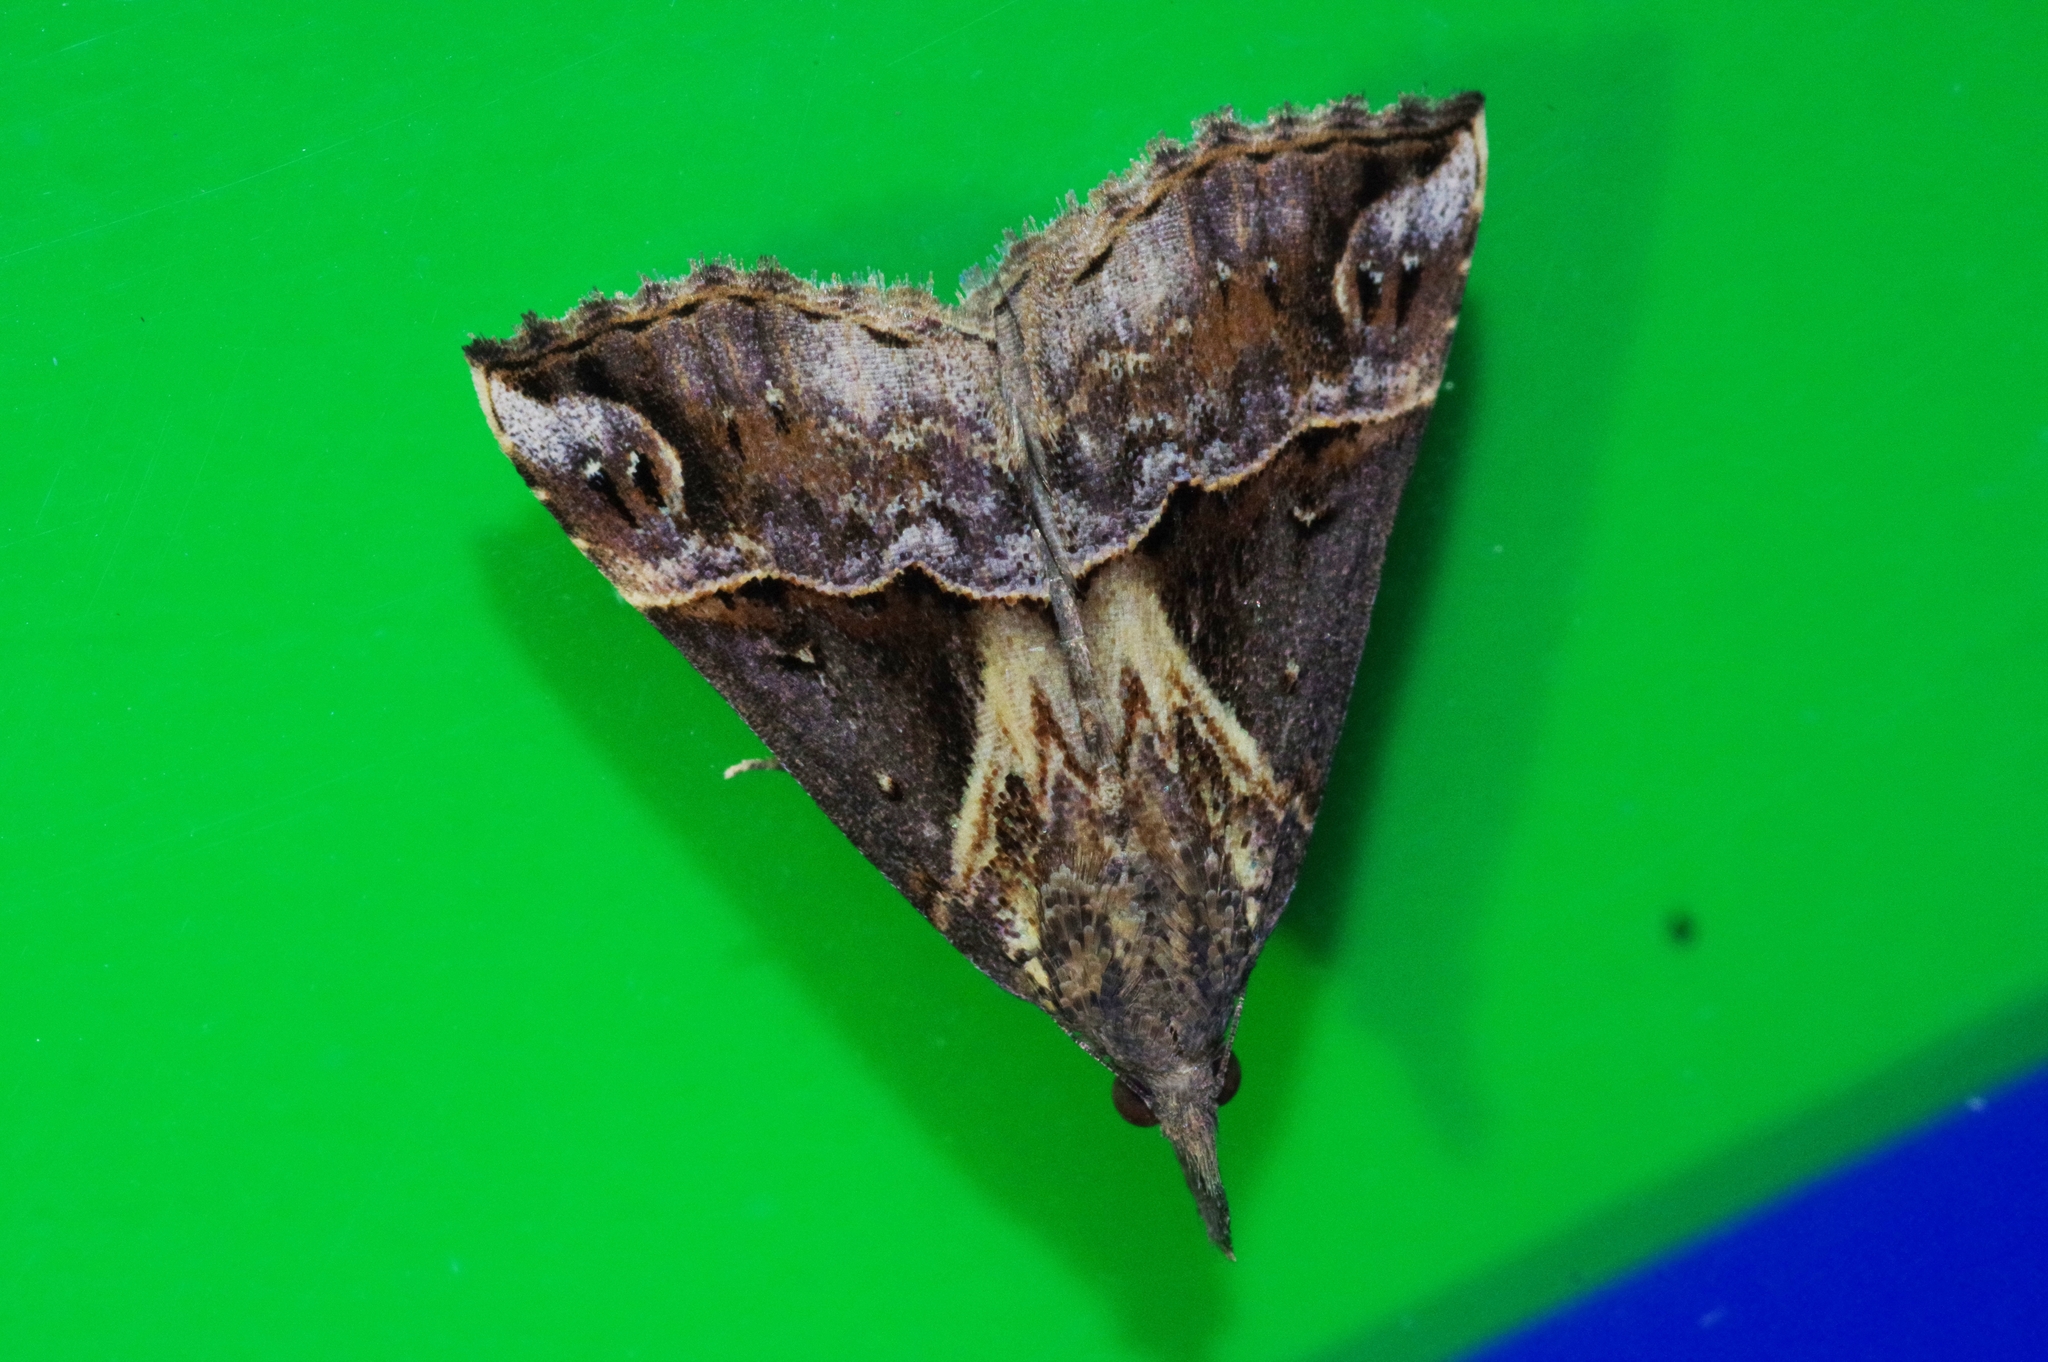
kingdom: Animalia
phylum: Arthropoda
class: Insecta
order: Lepidoptera
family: Erebidae
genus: Hypena
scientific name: Hypena indicatalis
